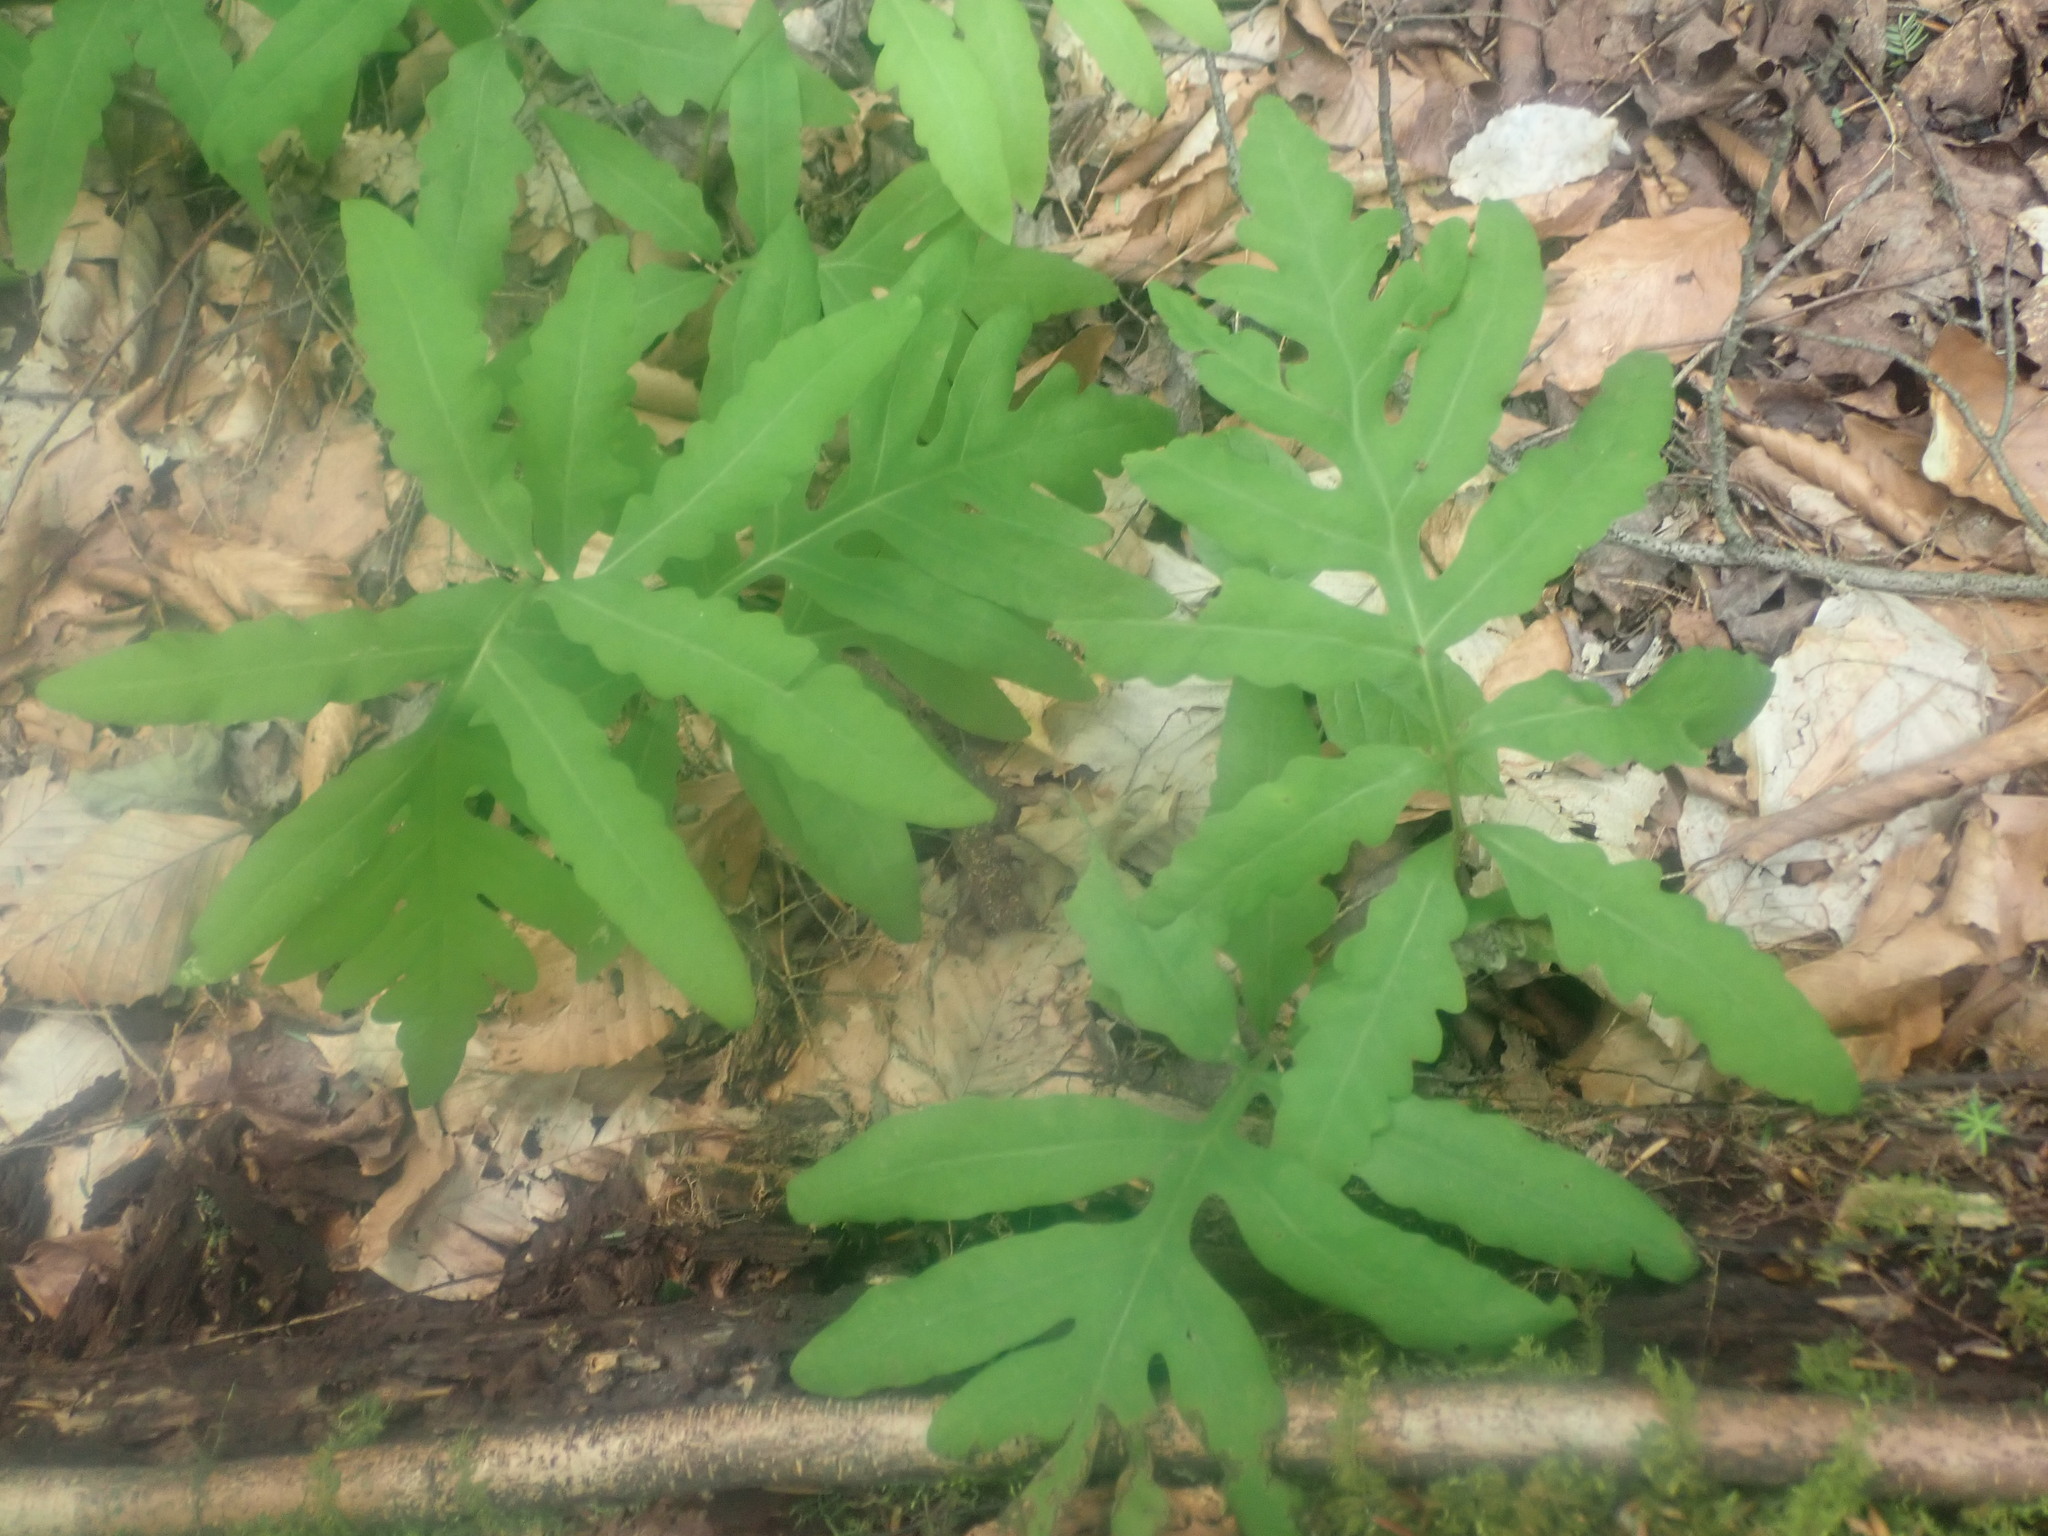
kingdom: Plantae
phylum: Tracheophyta
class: Polypodiopsida
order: Polypodiales
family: Onocleaceae
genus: Onoclea
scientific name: Onoclea sensibilis
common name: Sensitive fern
